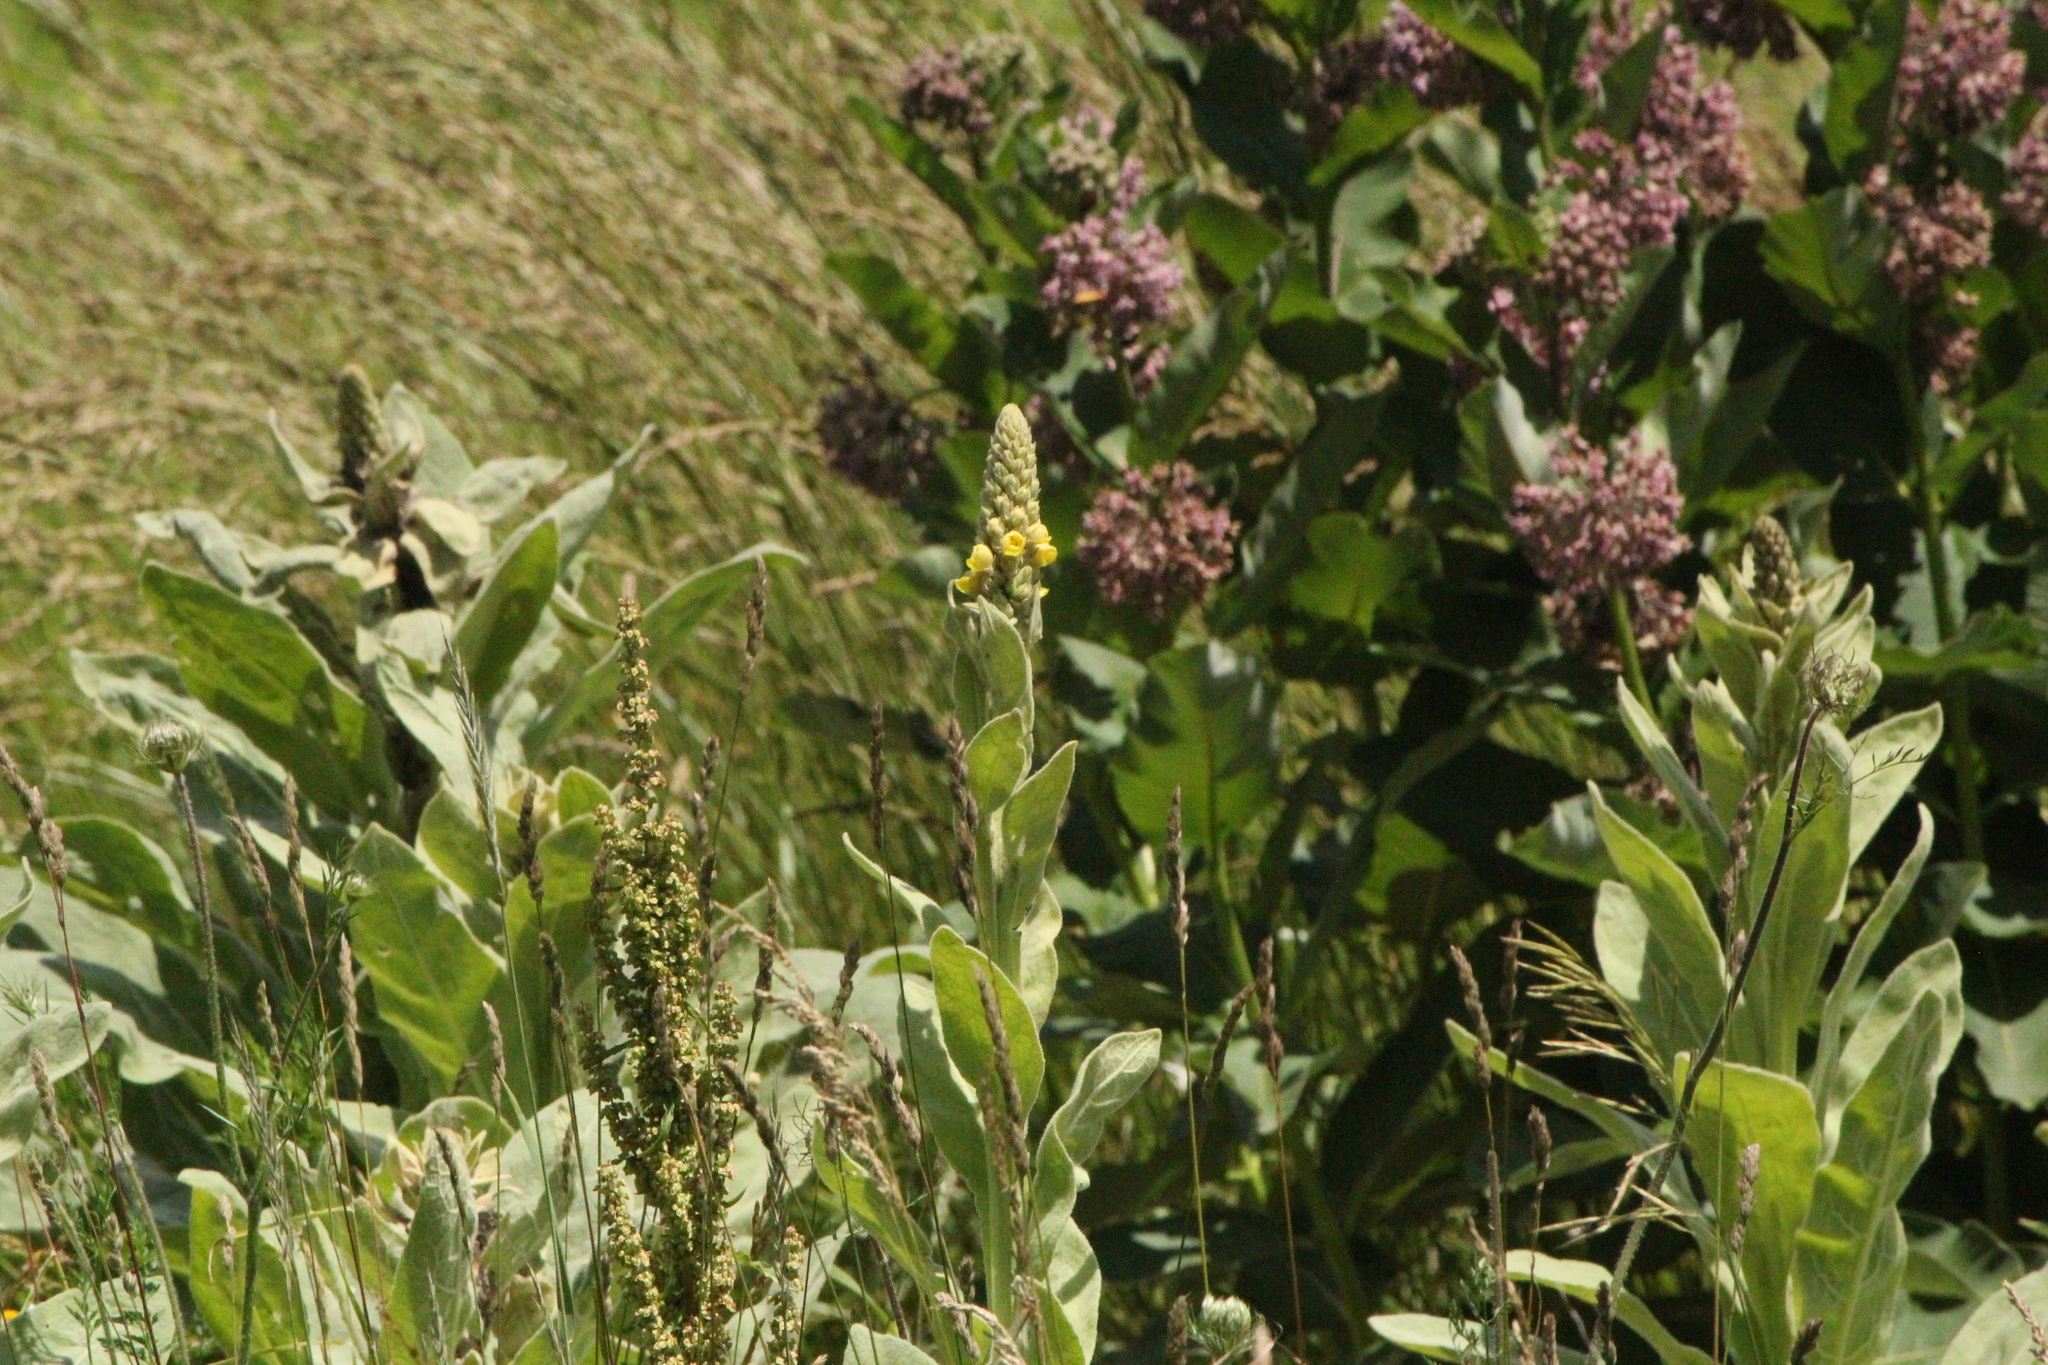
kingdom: Plantae
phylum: Tracheophyta
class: Magnoliopsida
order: Lamiales
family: Scrophulariaceae
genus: Verbascum
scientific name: Verbascum thapsus
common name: Common mullein
